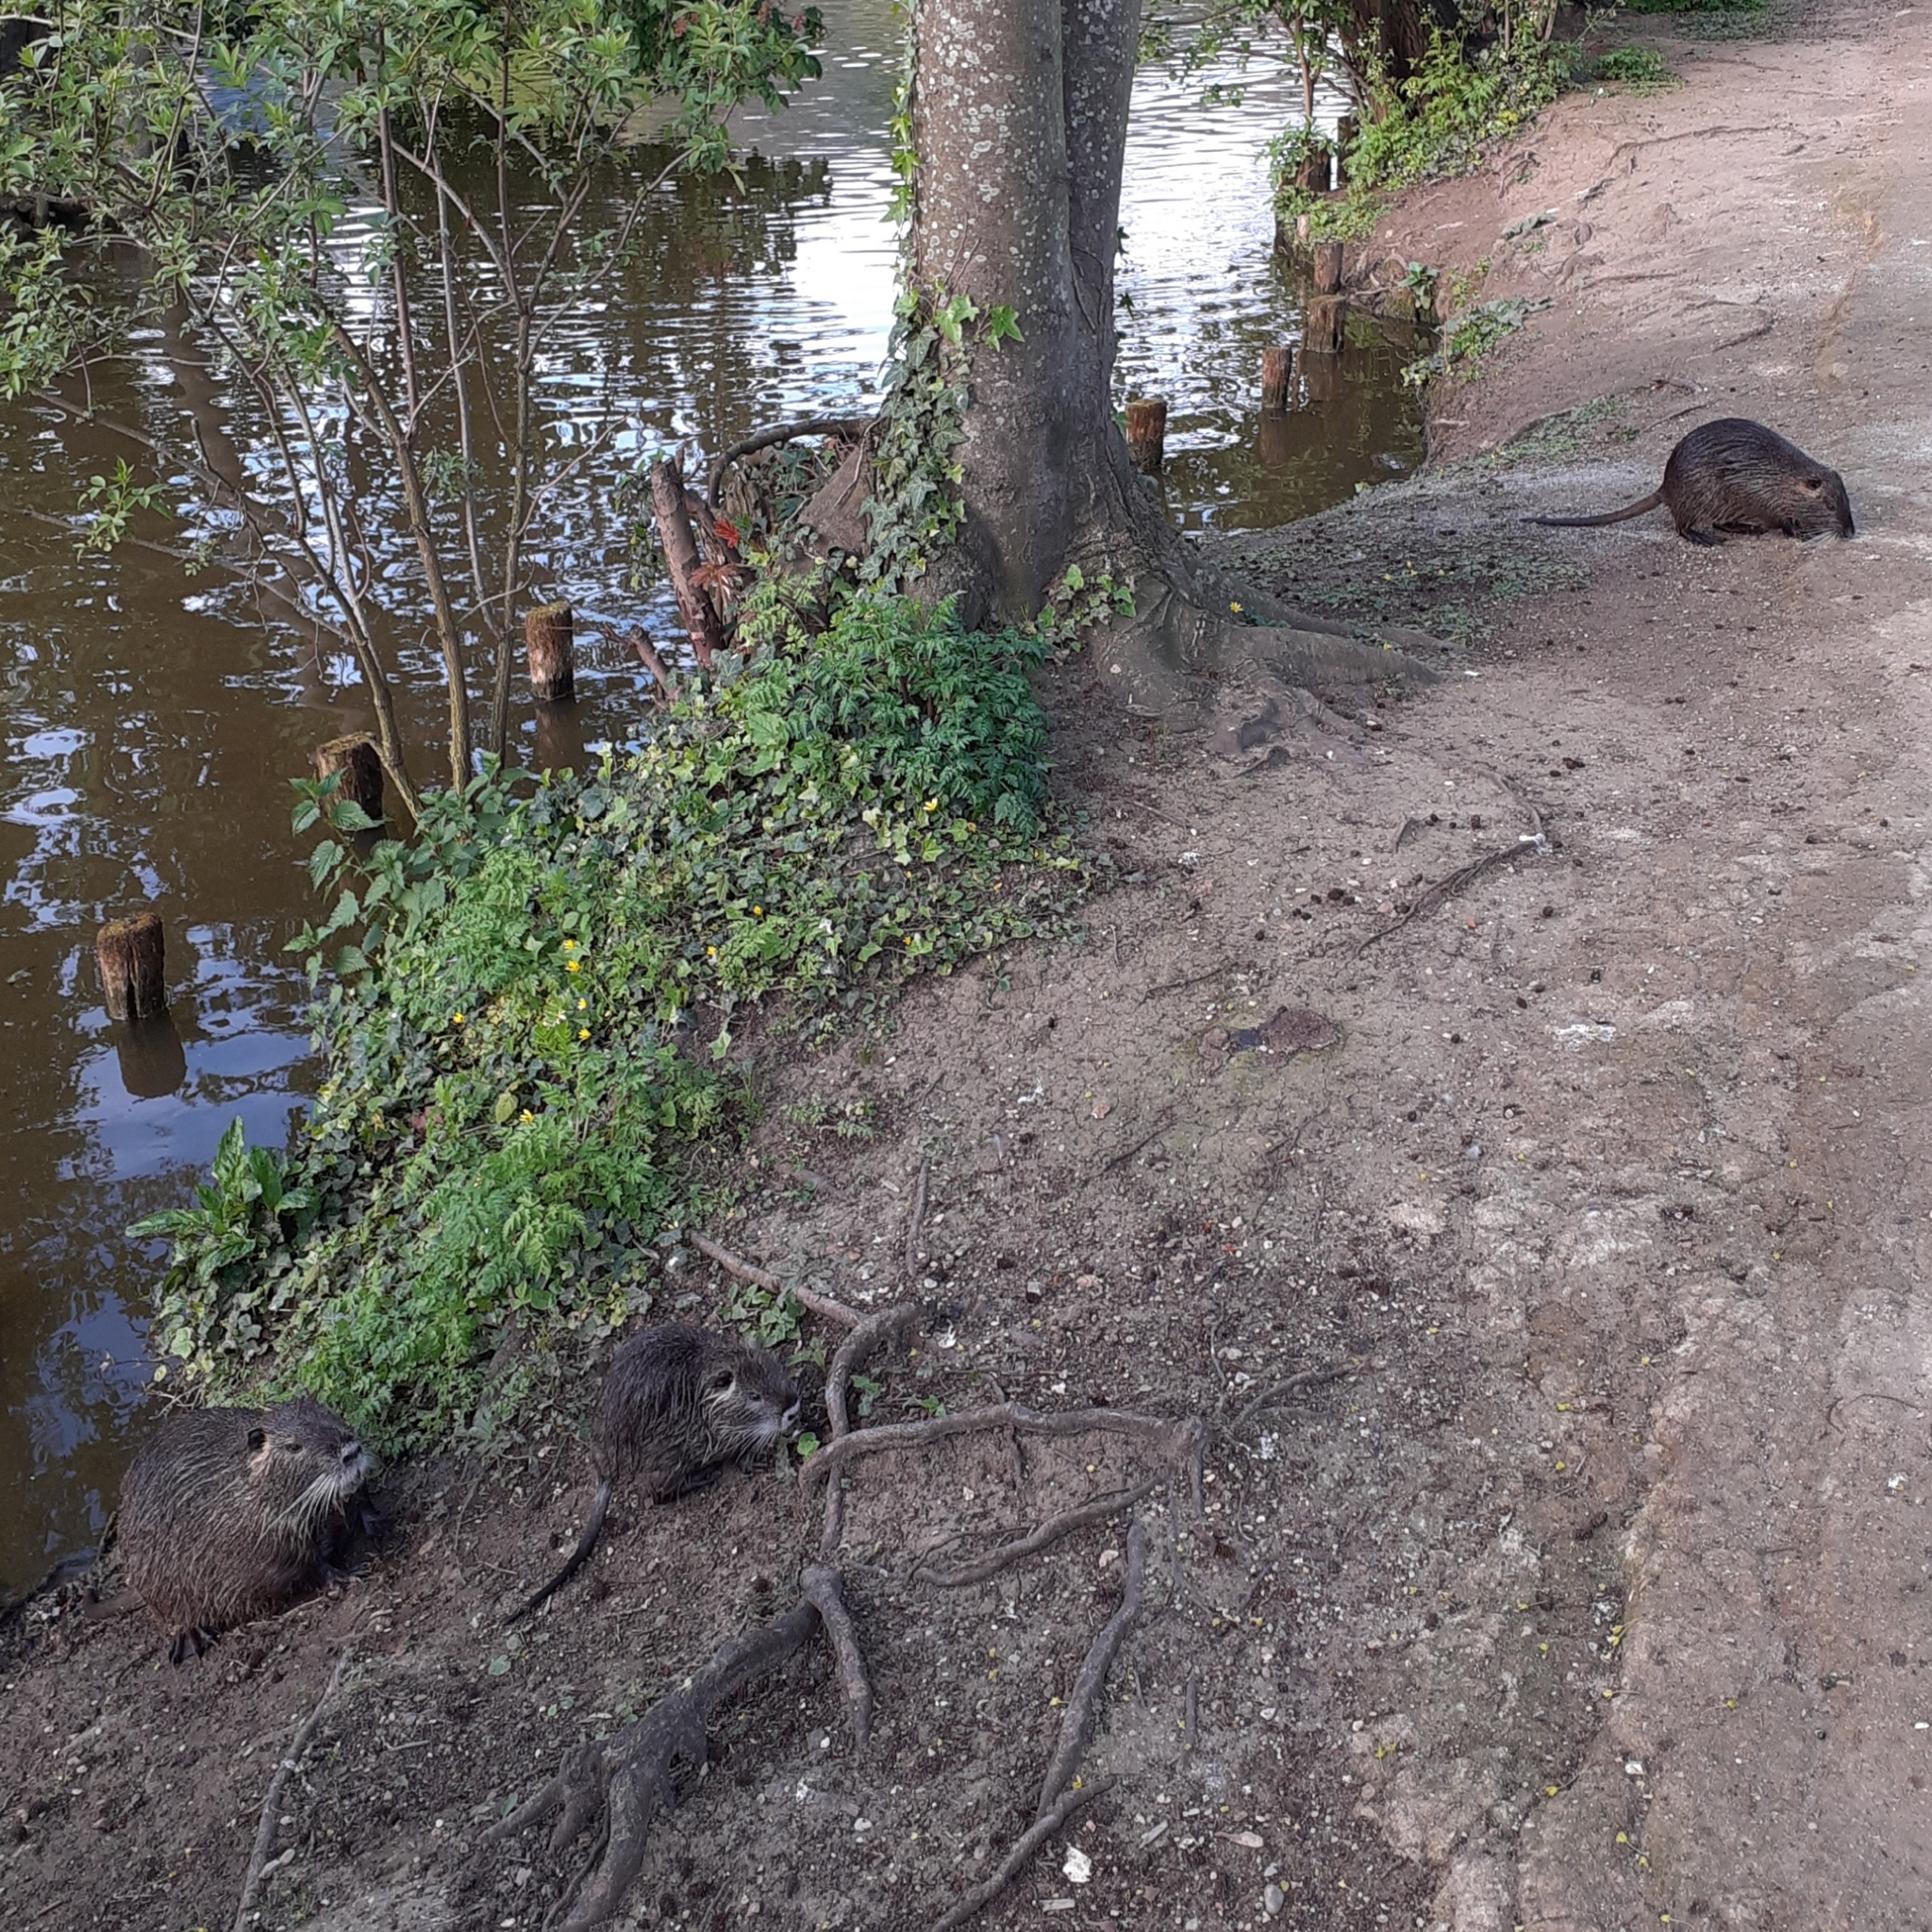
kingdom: Animalia
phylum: Chordata
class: Mammalia
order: Rodentia
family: Myocastoridae
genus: Myocastor
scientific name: Myocastor coypus
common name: Coypu
